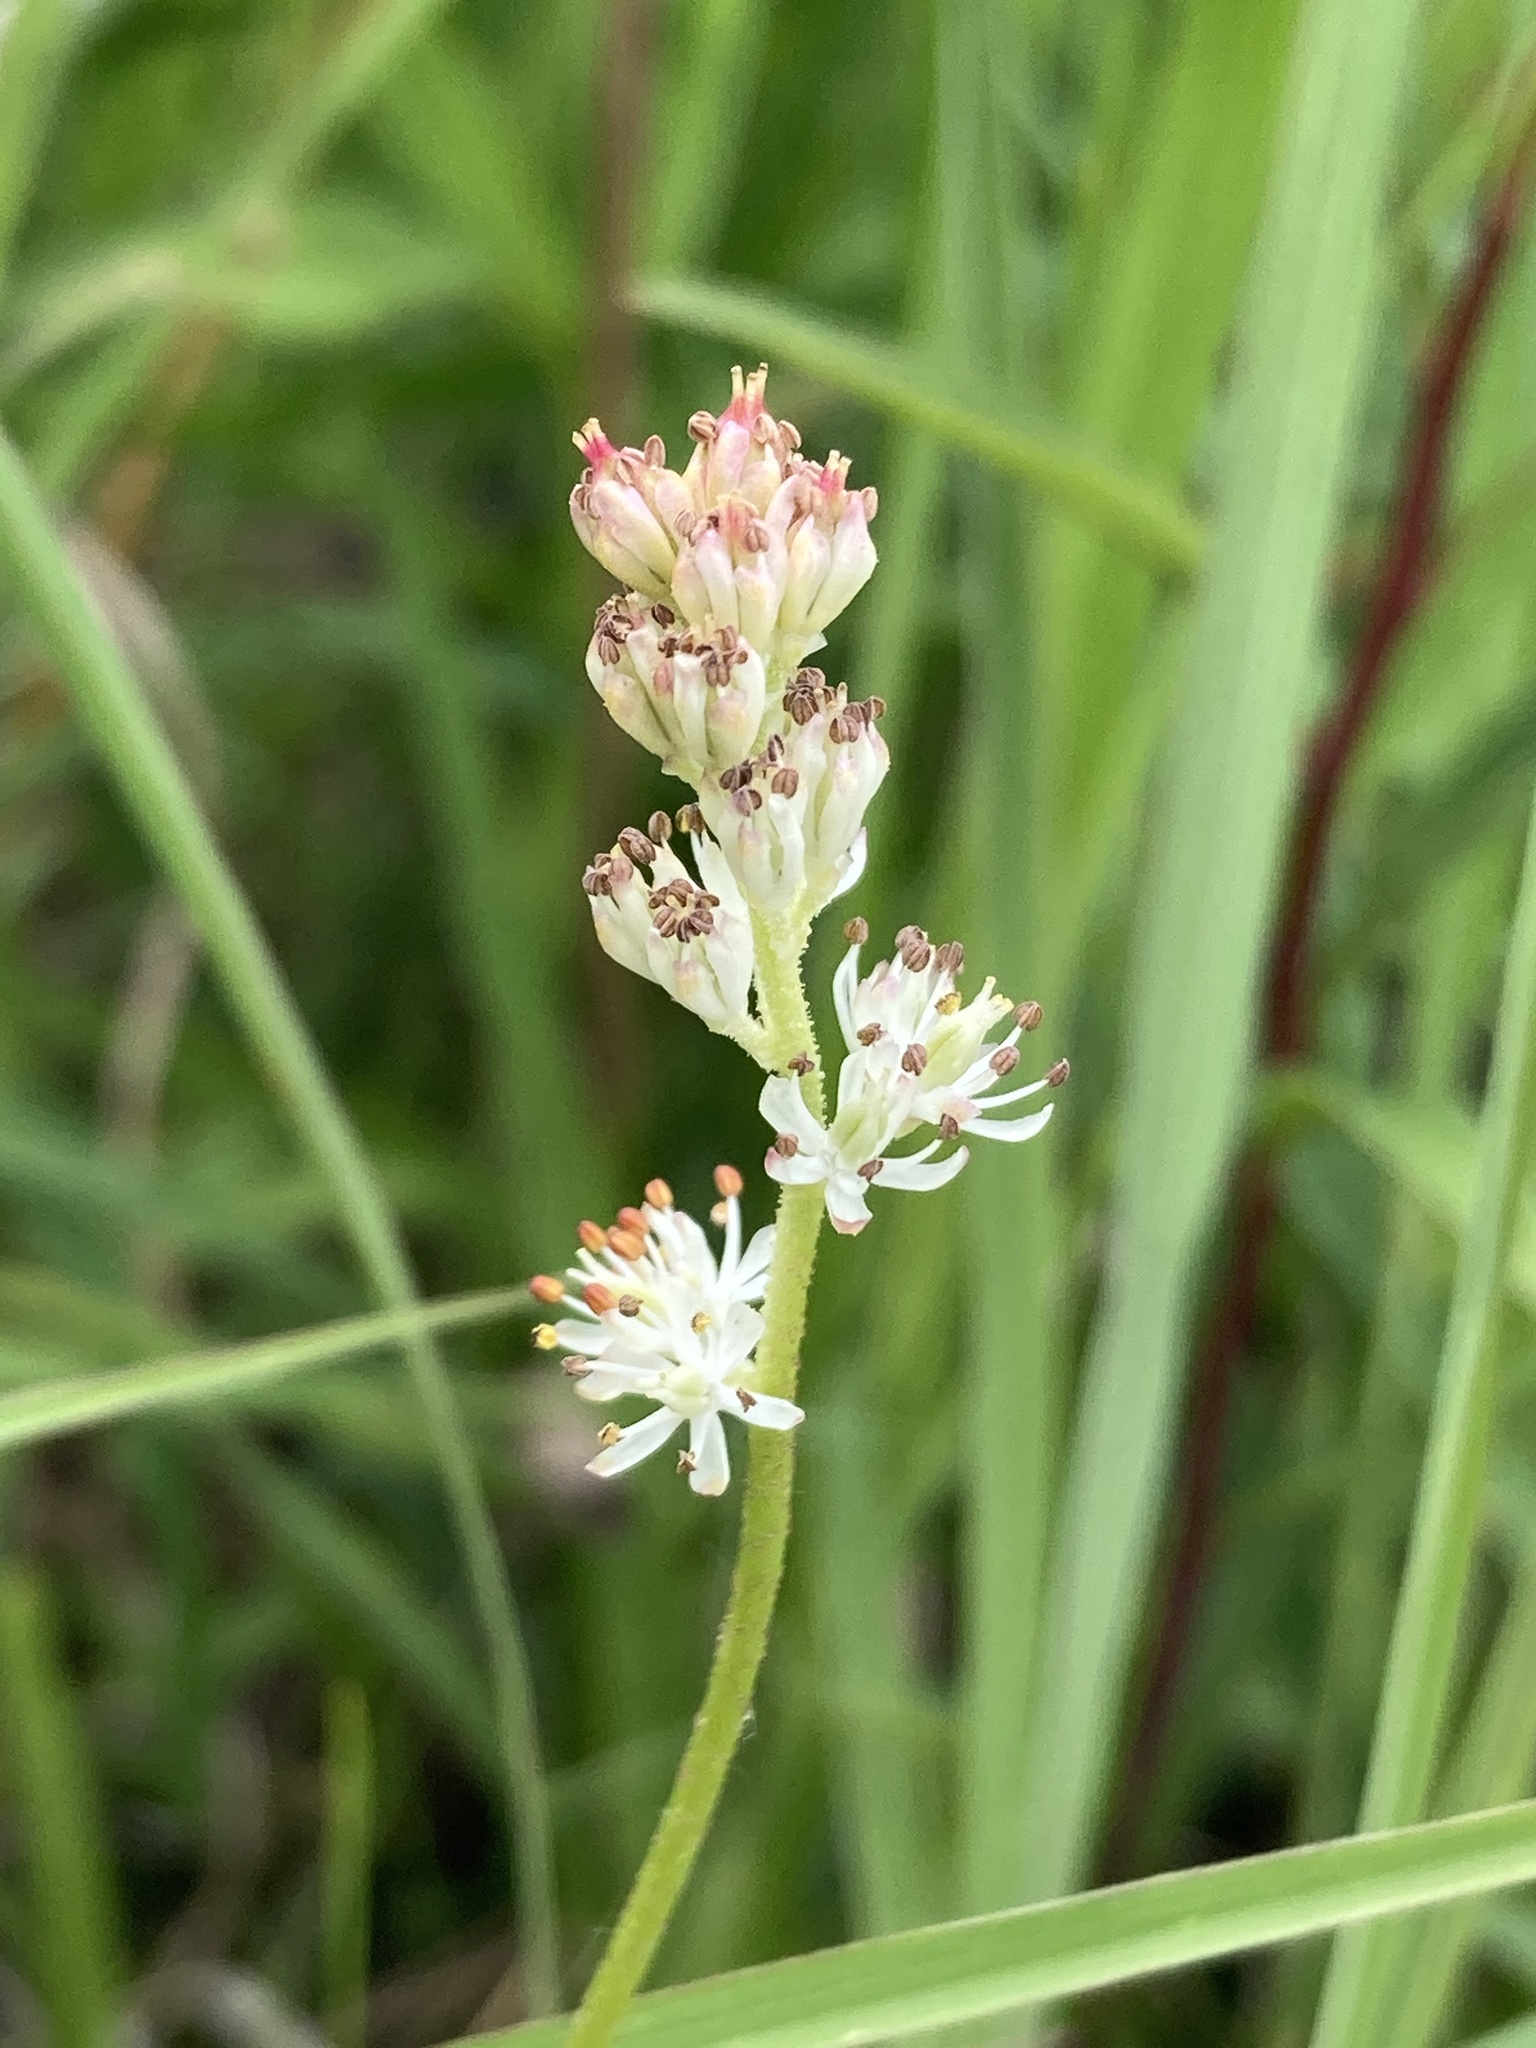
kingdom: Plantae
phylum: Tracheophyta
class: Liliopsida
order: Alismatales
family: Tofieldiaceae
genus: Triantha
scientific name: Triantha glutinosa
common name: Glutinous tofieldia
